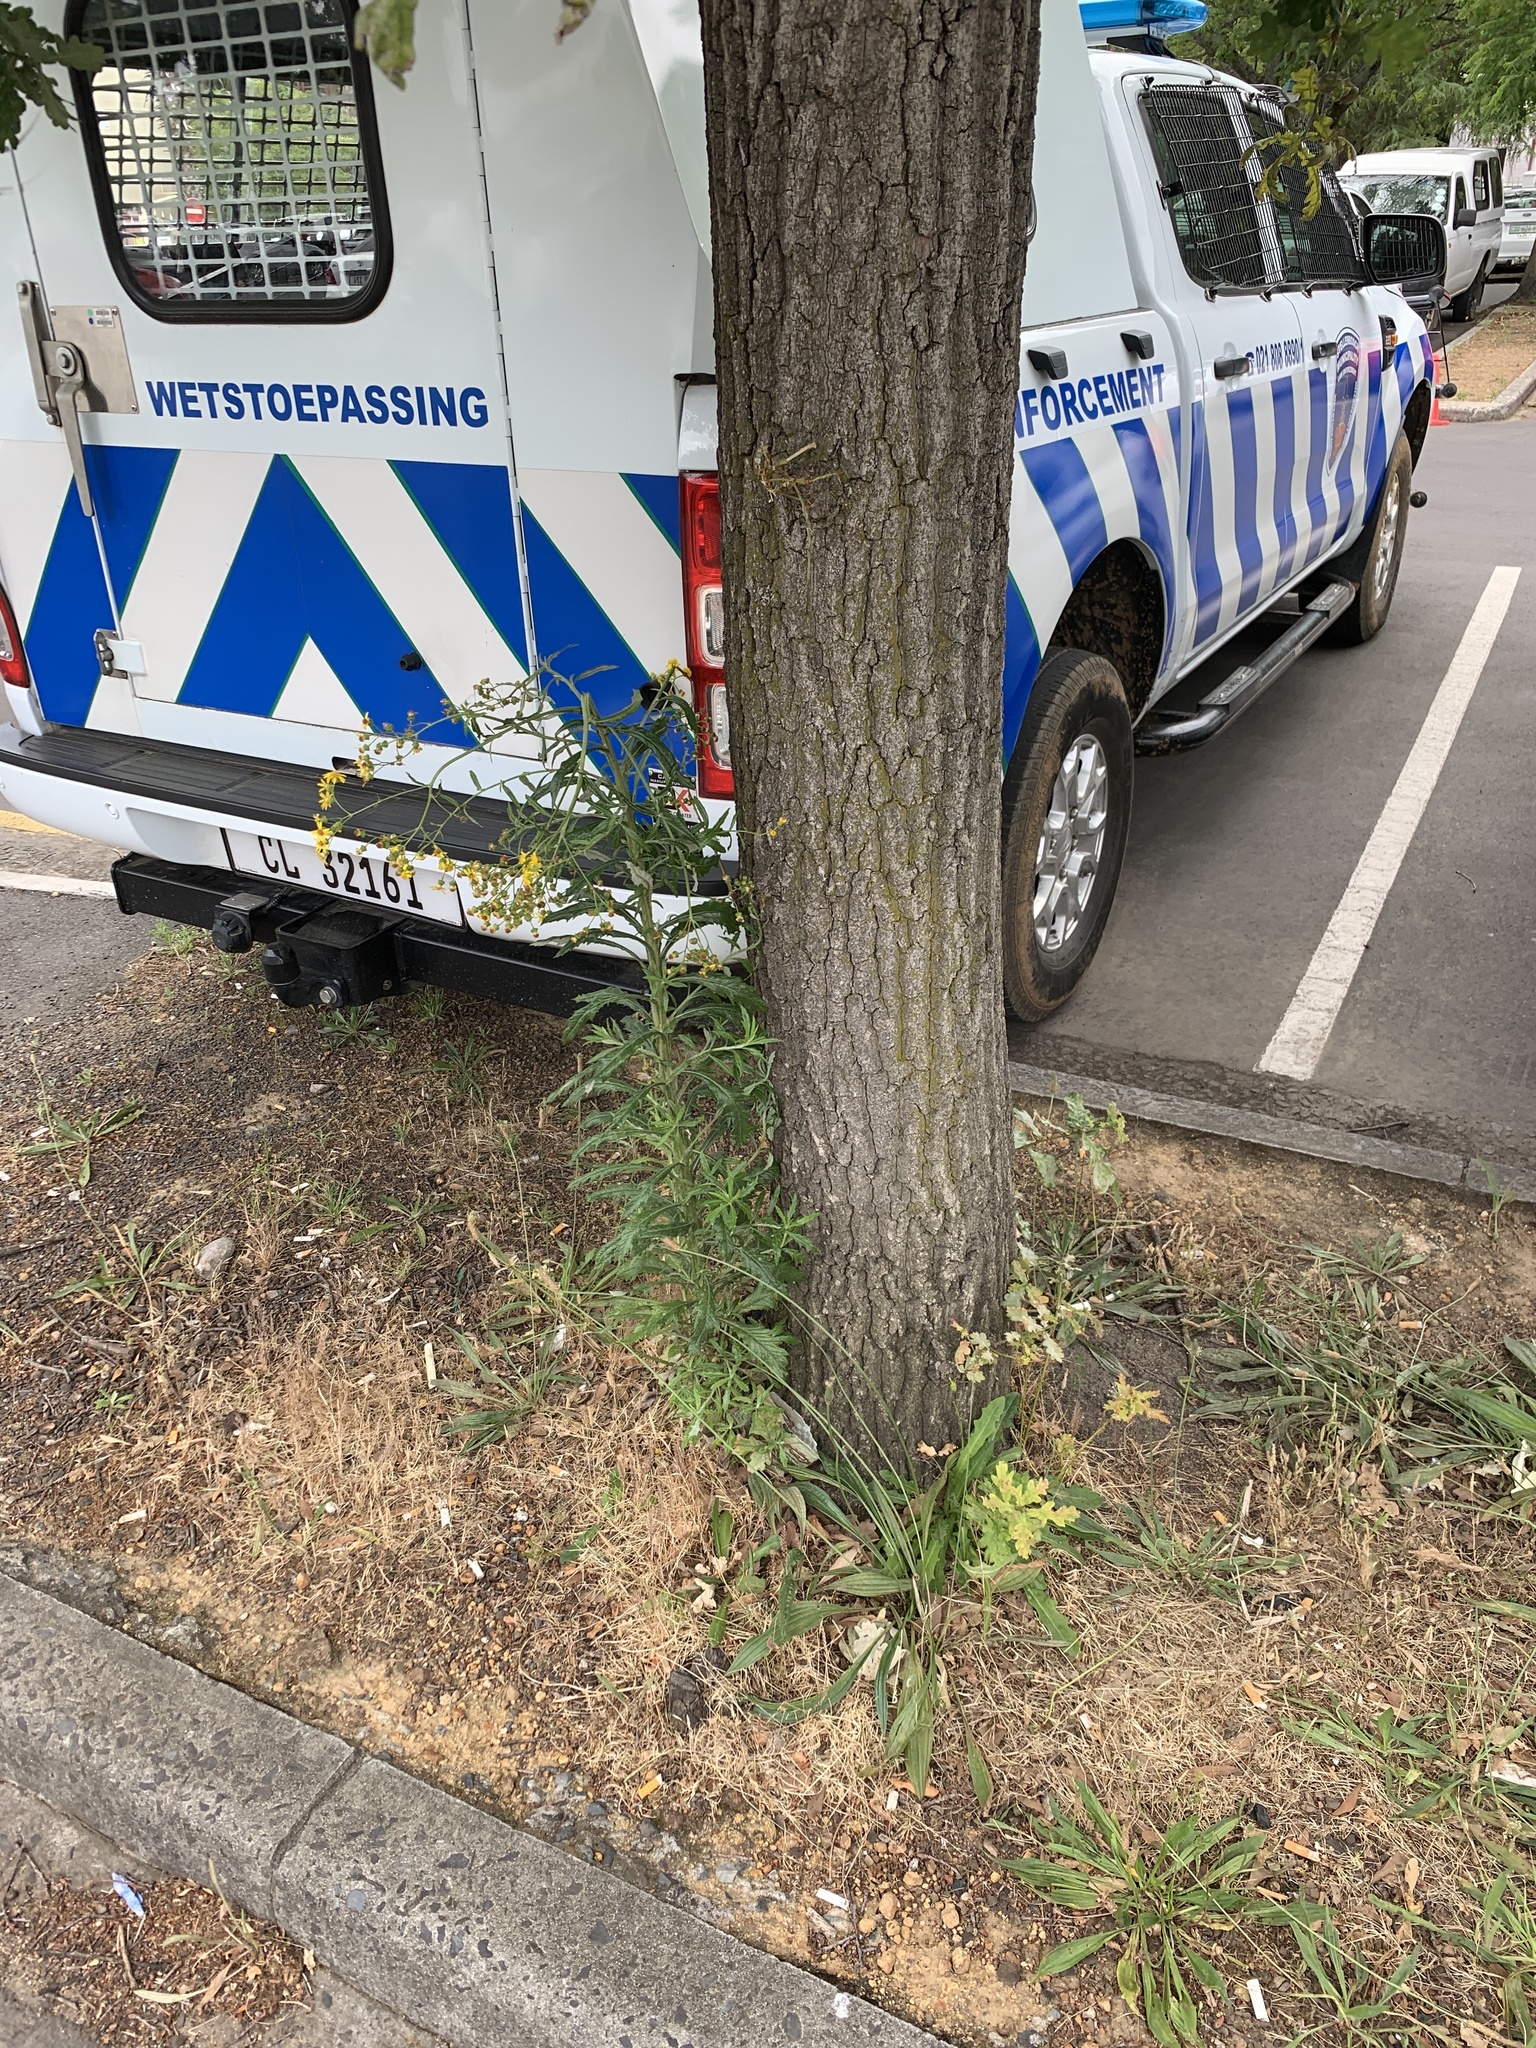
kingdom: Plantae
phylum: Tracheophyta
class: Magnoliopsida
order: Asterales
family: Asteraceae
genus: Senecio
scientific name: Senecio pterophorus
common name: Shoddy ragwort
